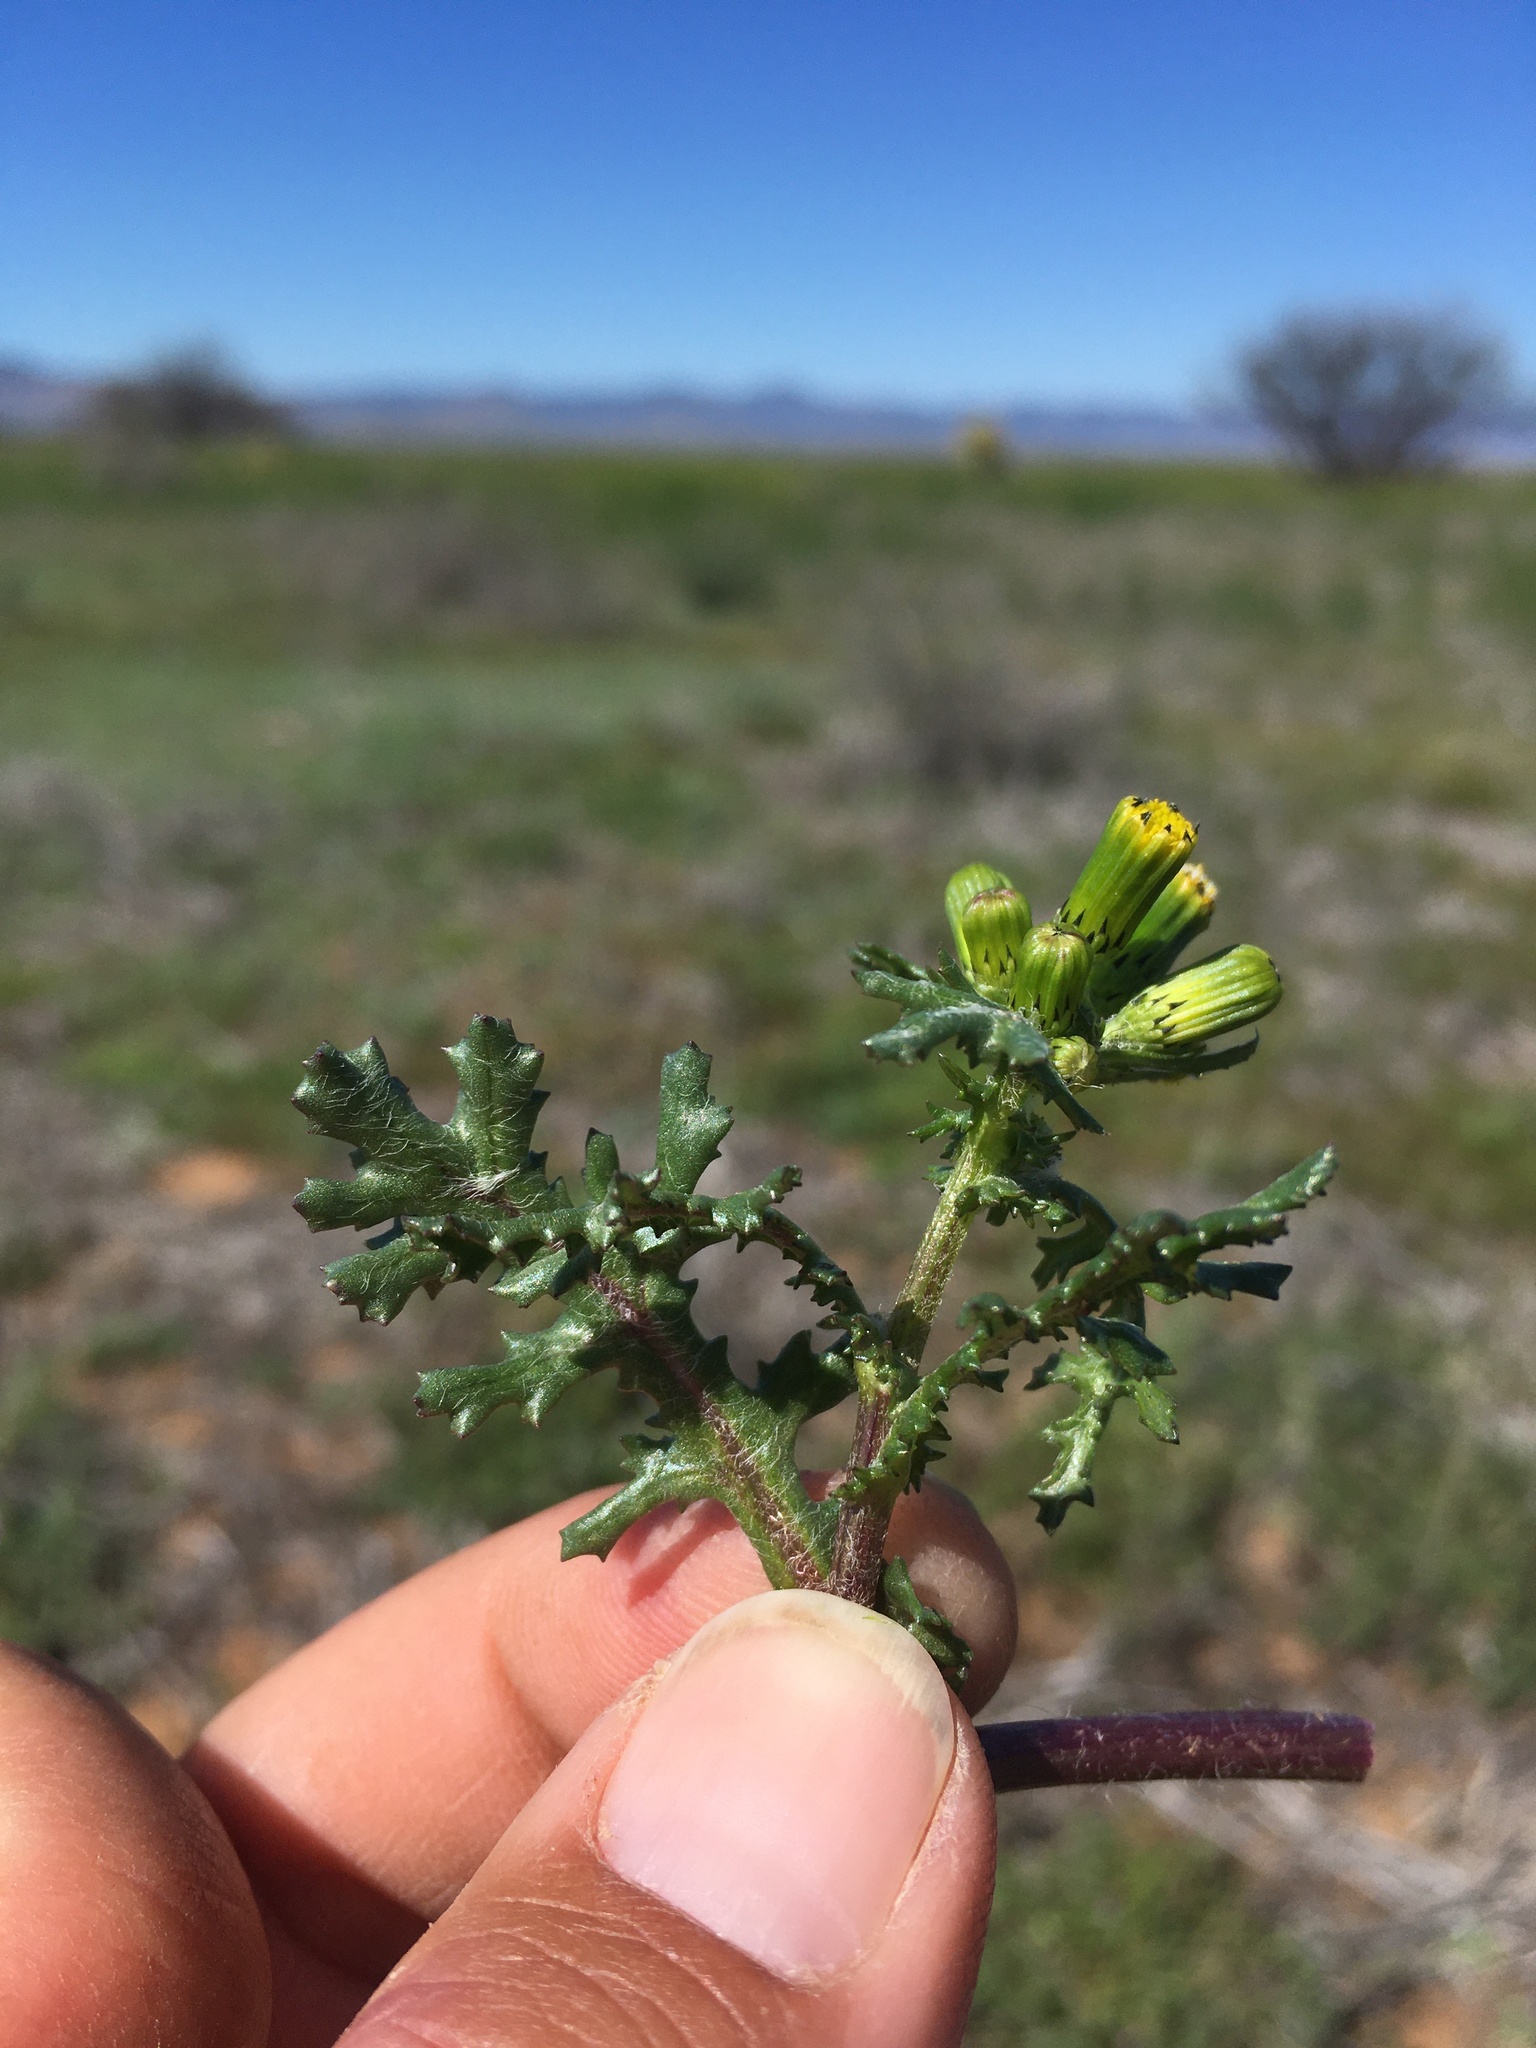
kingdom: Plantae
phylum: Tracheophyta
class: Magnoliopsida
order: Asterales
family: Asteraceae
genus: Senecio
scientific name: Senecio vulgaris
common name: Old-man-in-the-spring
